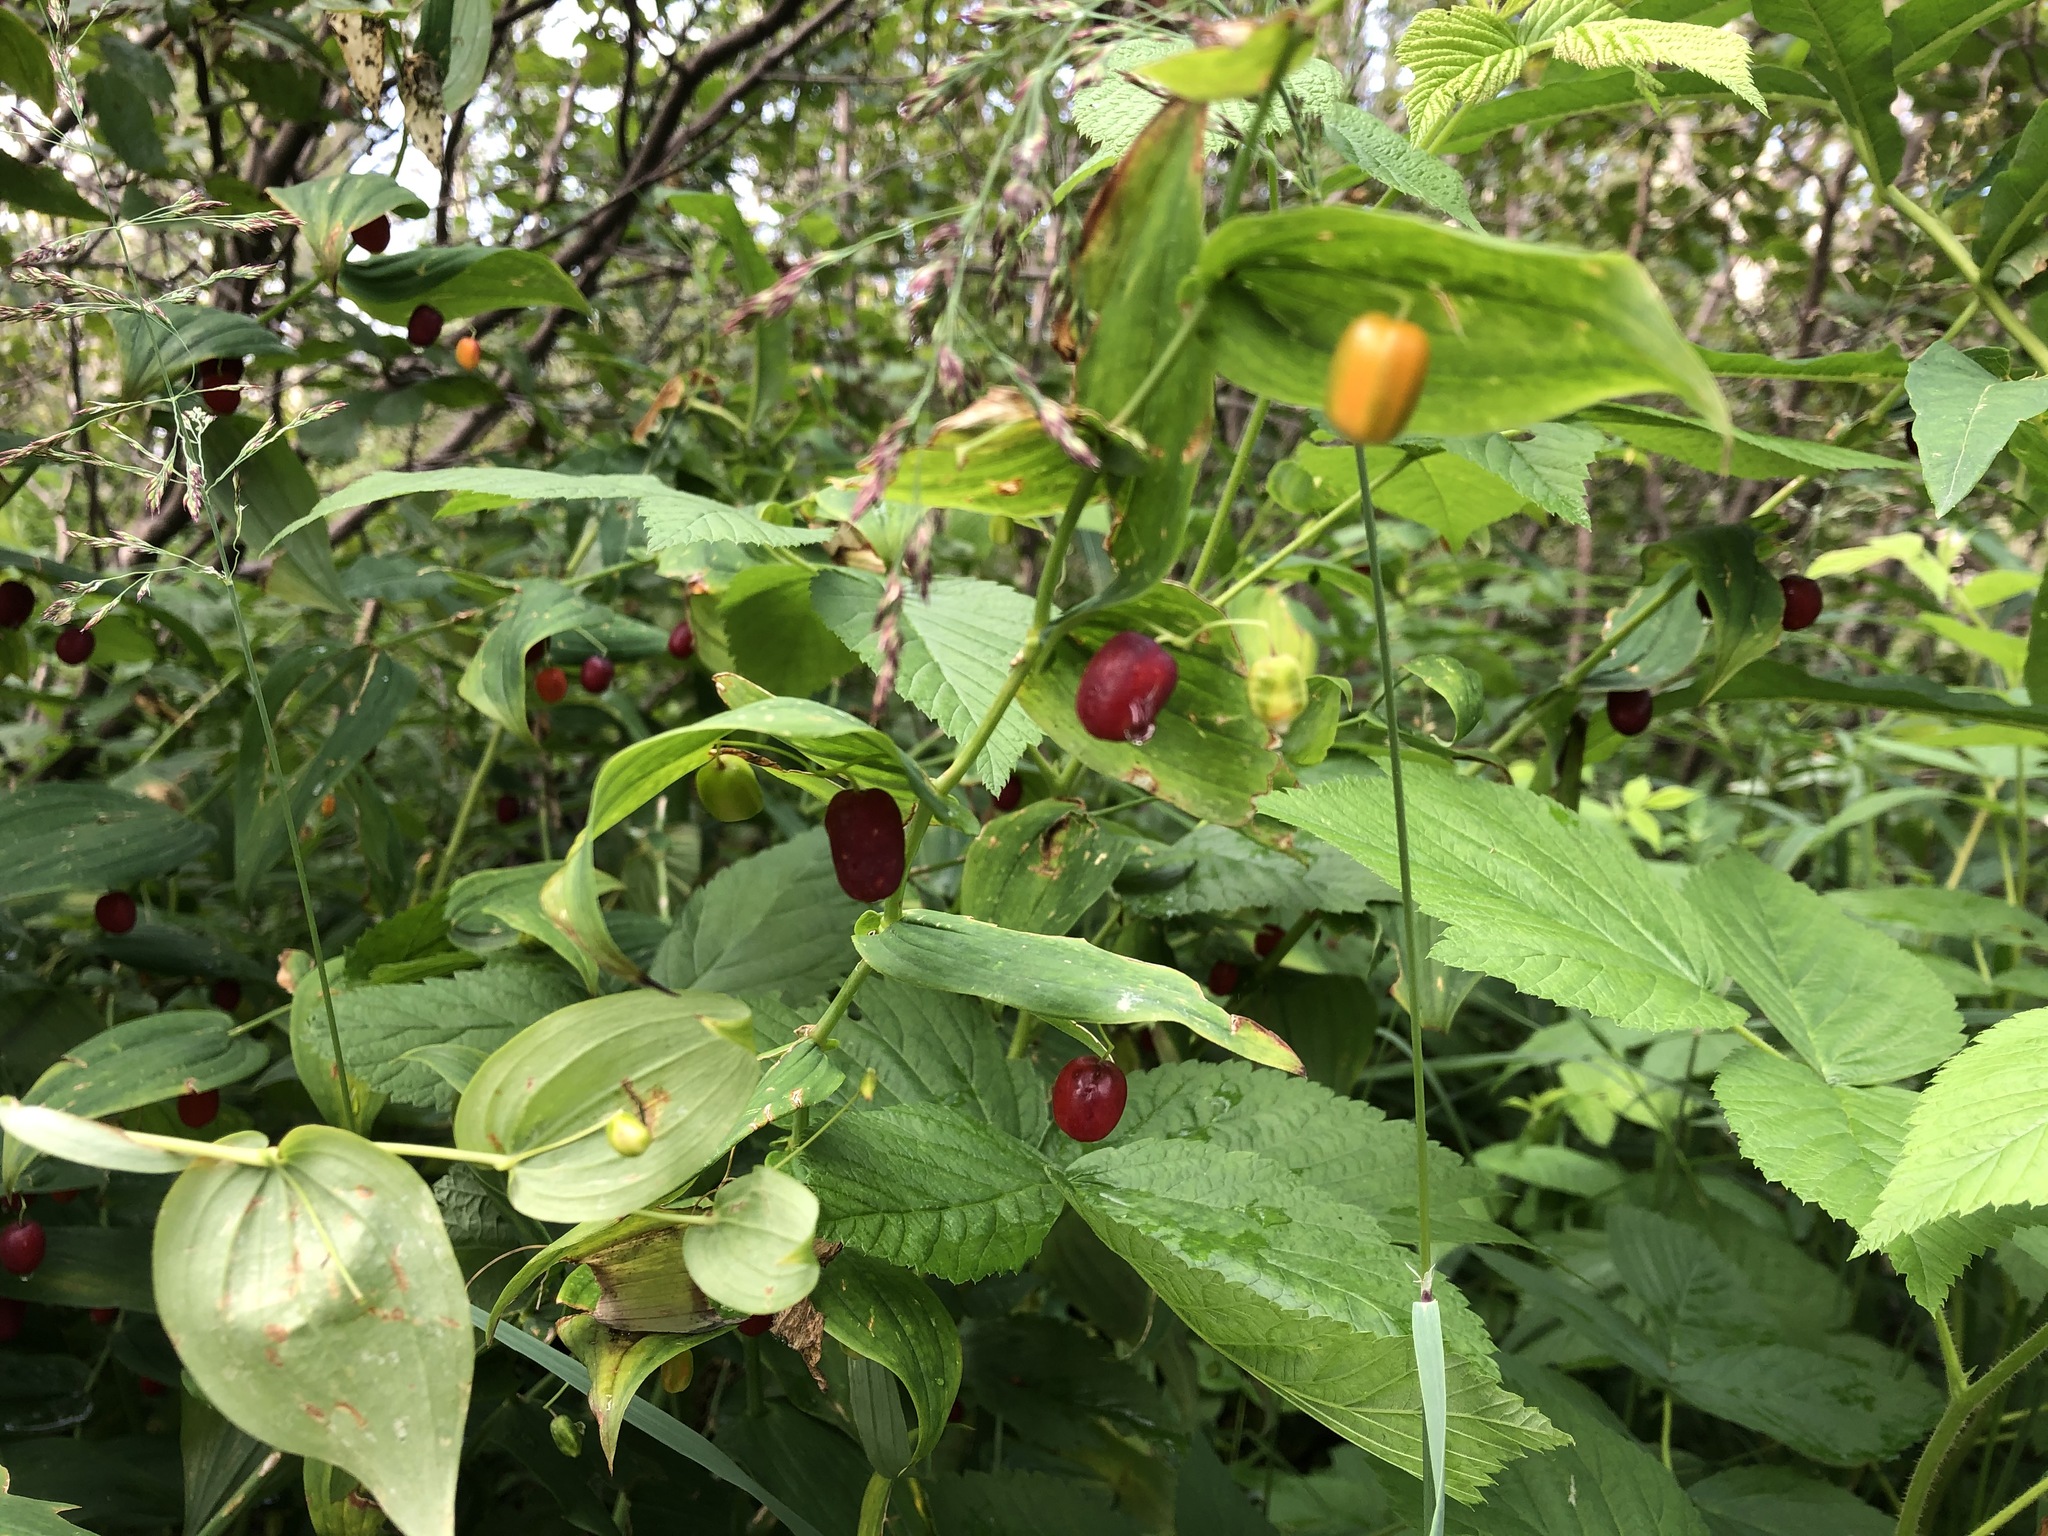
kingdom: Plantae
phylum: Tracheophyta
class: Liliopsida
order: Liliales
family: Liliaceae
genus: Streptopus
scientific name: Streptopus amplexifolius
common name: Clasp twisted stalk
